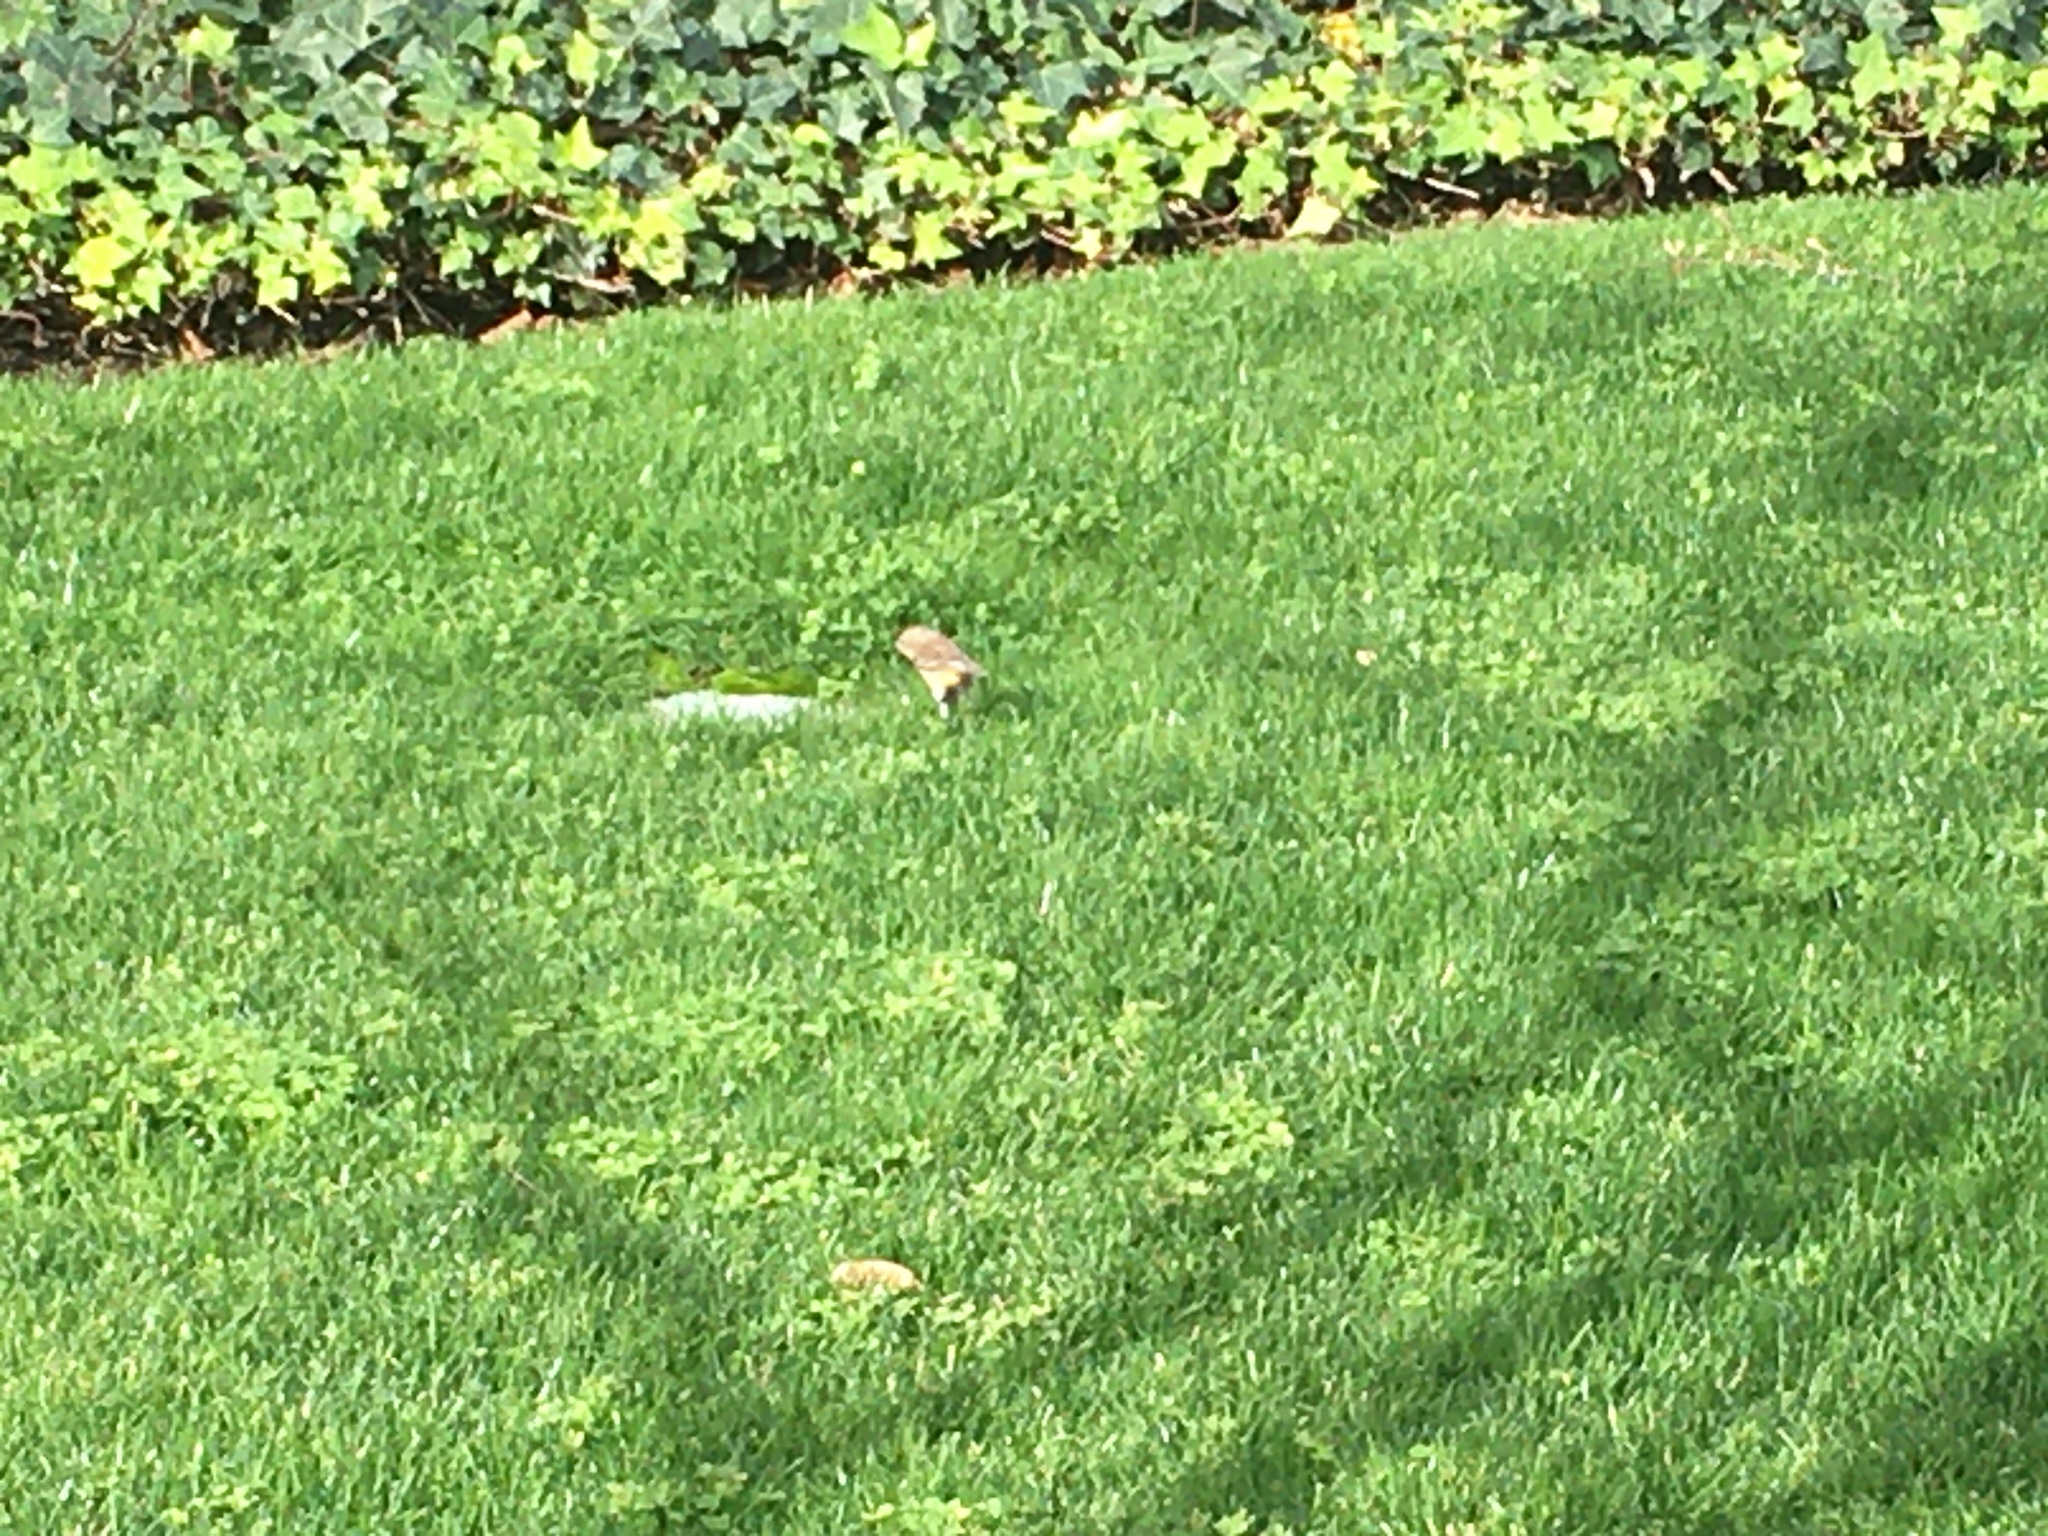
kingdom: Animalia
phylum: Chordata
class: Aves
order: Passeriformes
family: Parulidae
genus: Setophaga
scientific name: Setophaga coronata
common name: Myrtle warbler
